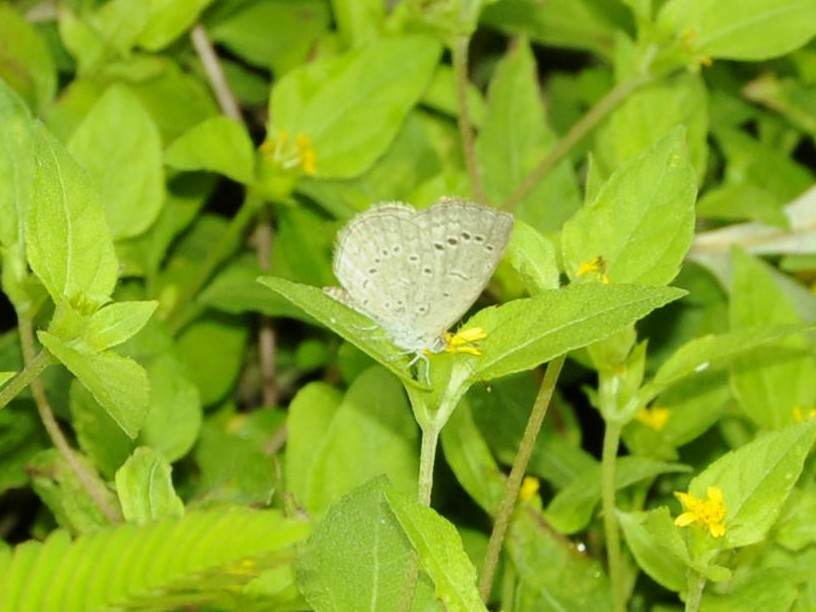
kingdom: Animalia
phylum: Arthropoda
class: Insecta
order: Lepidoptera
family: Lycaenidae
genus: Zizina
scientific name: Zizina otis
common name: Lesser grass blue
